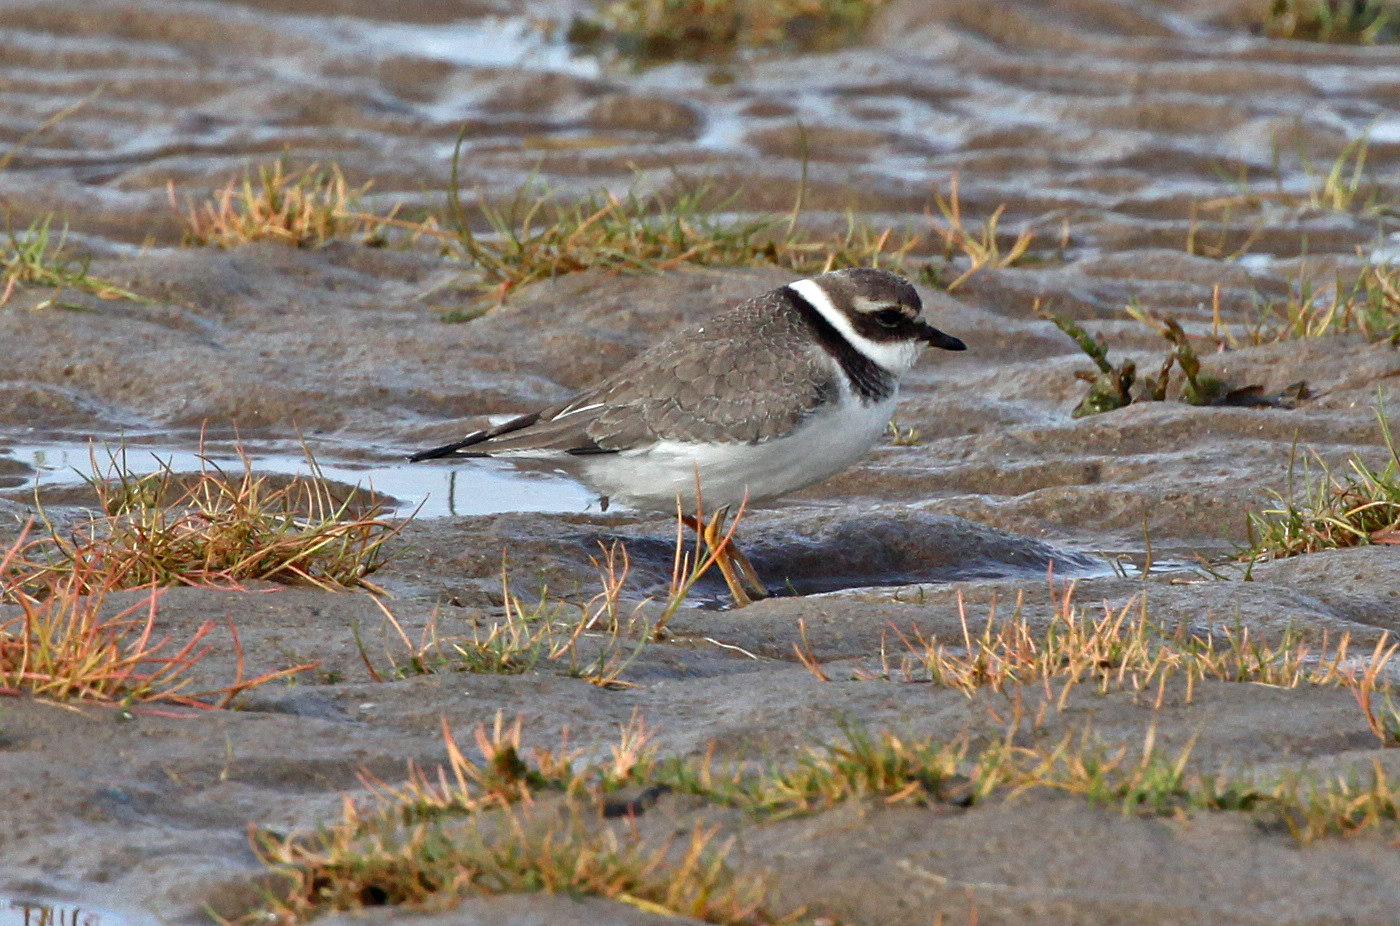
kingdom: Animalia
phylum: Chordata
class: Aves
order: Charadriiformes
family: Charadriidae
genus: Charadrius
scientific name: Charadrius hiaticula
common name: Common ringed plover
